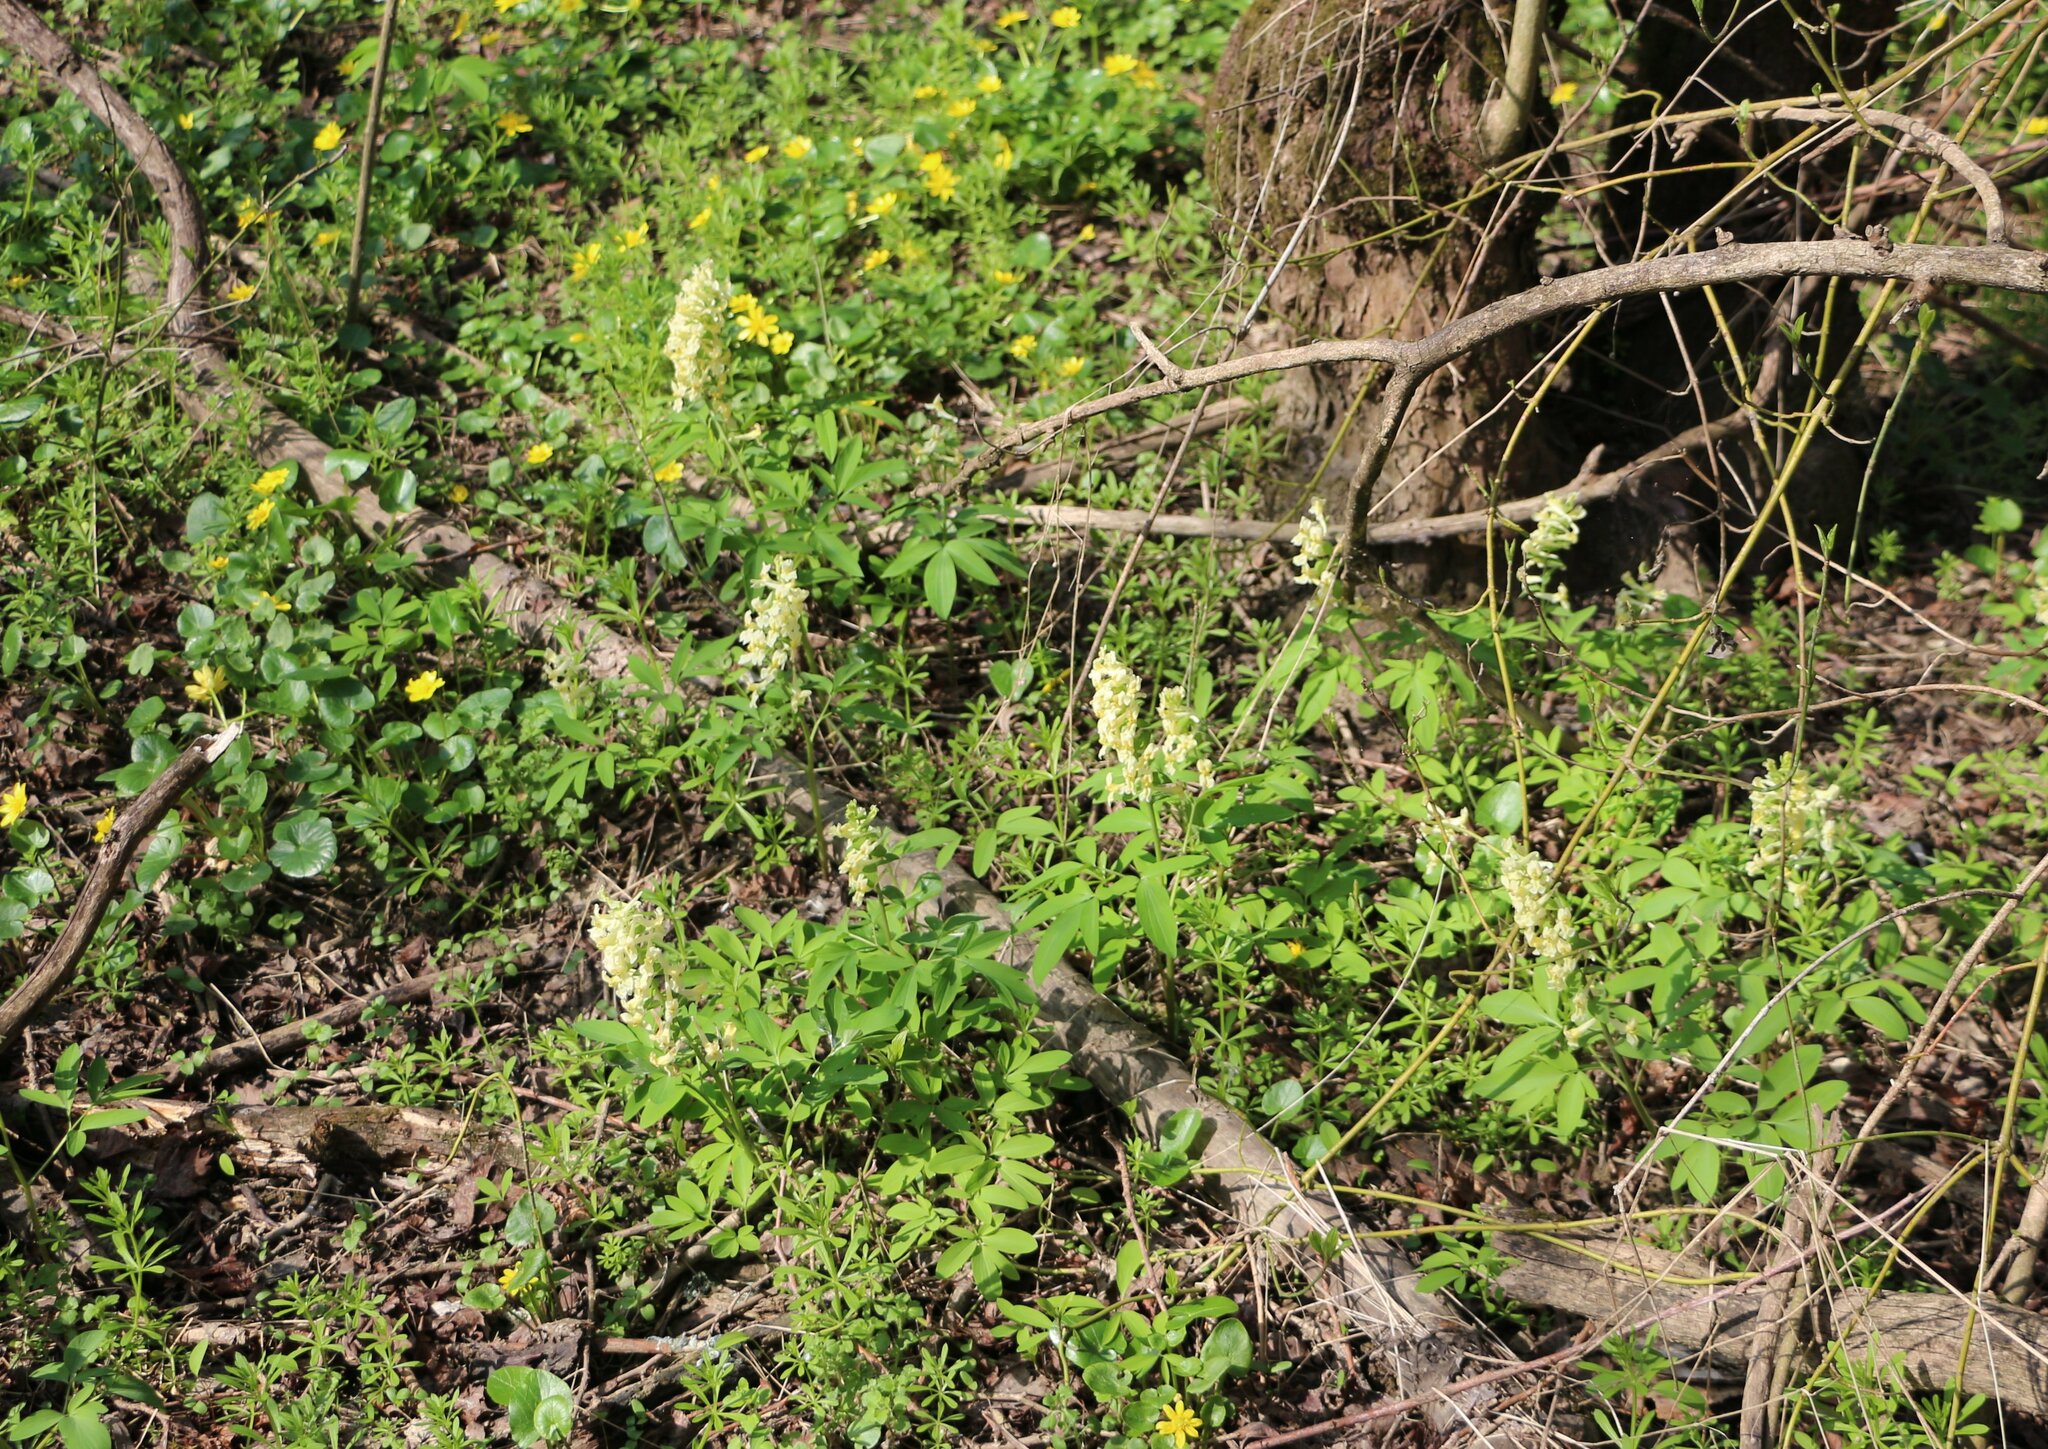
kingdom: Plantae
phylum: Tracheophyta
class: Magnoliopsida
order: Ranunculales
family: Papaveraceae
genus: Corydalis
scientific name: Corydalis cava
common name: Hollowroot
